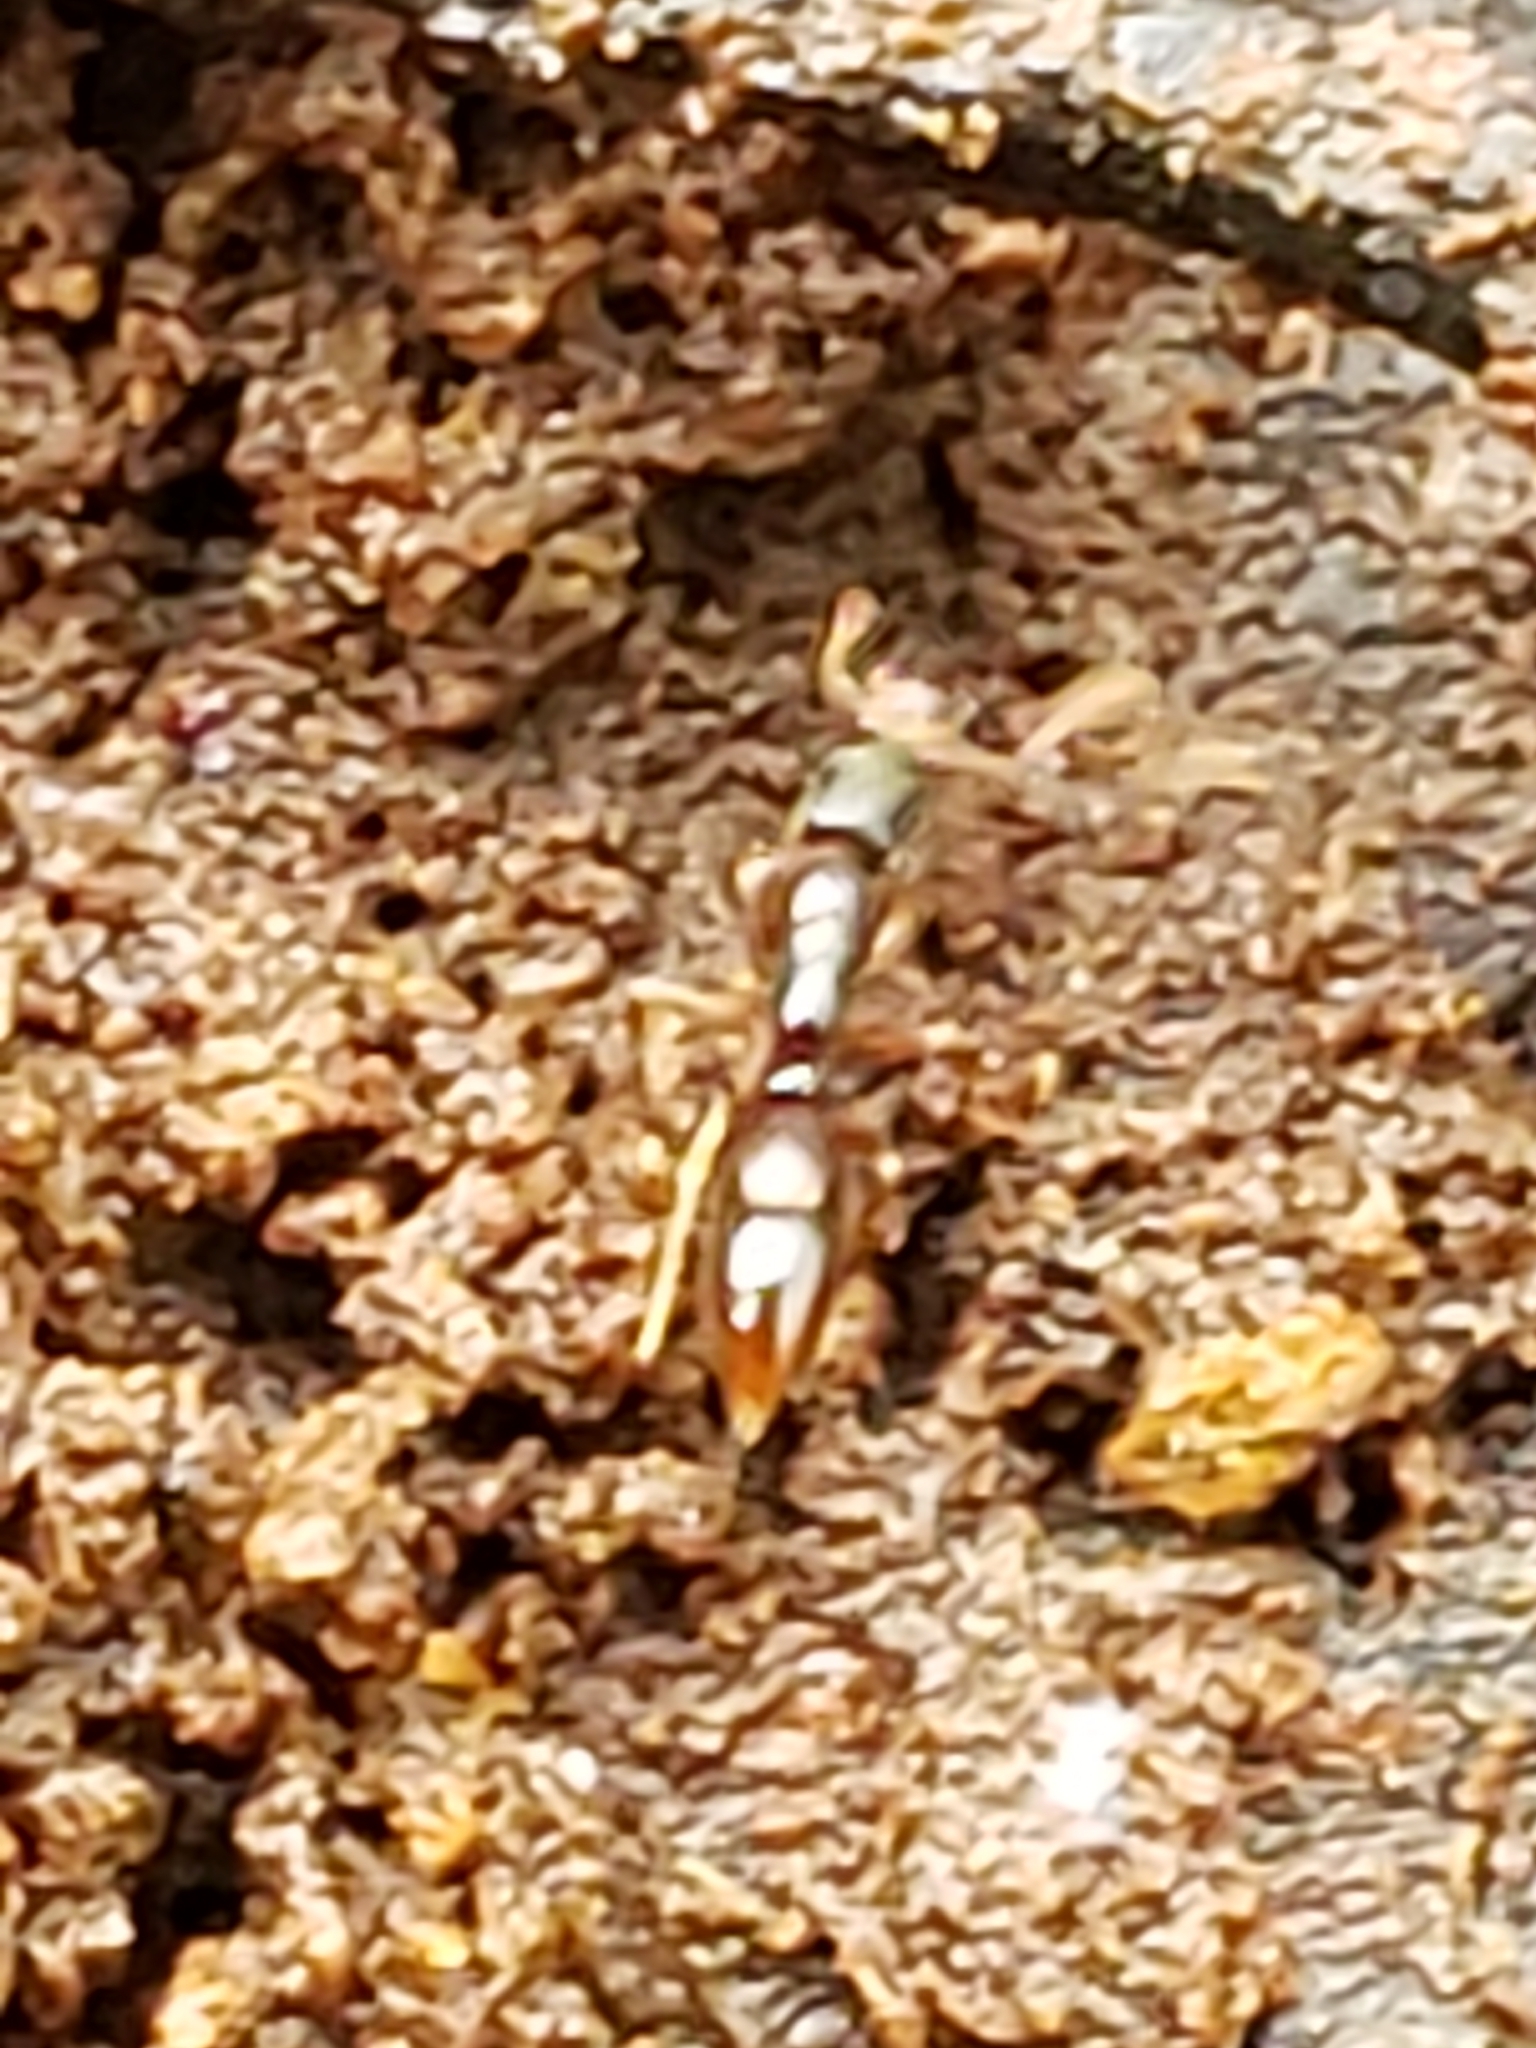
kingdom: Animalia
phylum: Arthropoda
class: Insecta
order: Hymenoptera
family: Formicidae
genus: Ponera
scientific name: Ponera pennsylvanica
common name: Pennsylvania ponera
